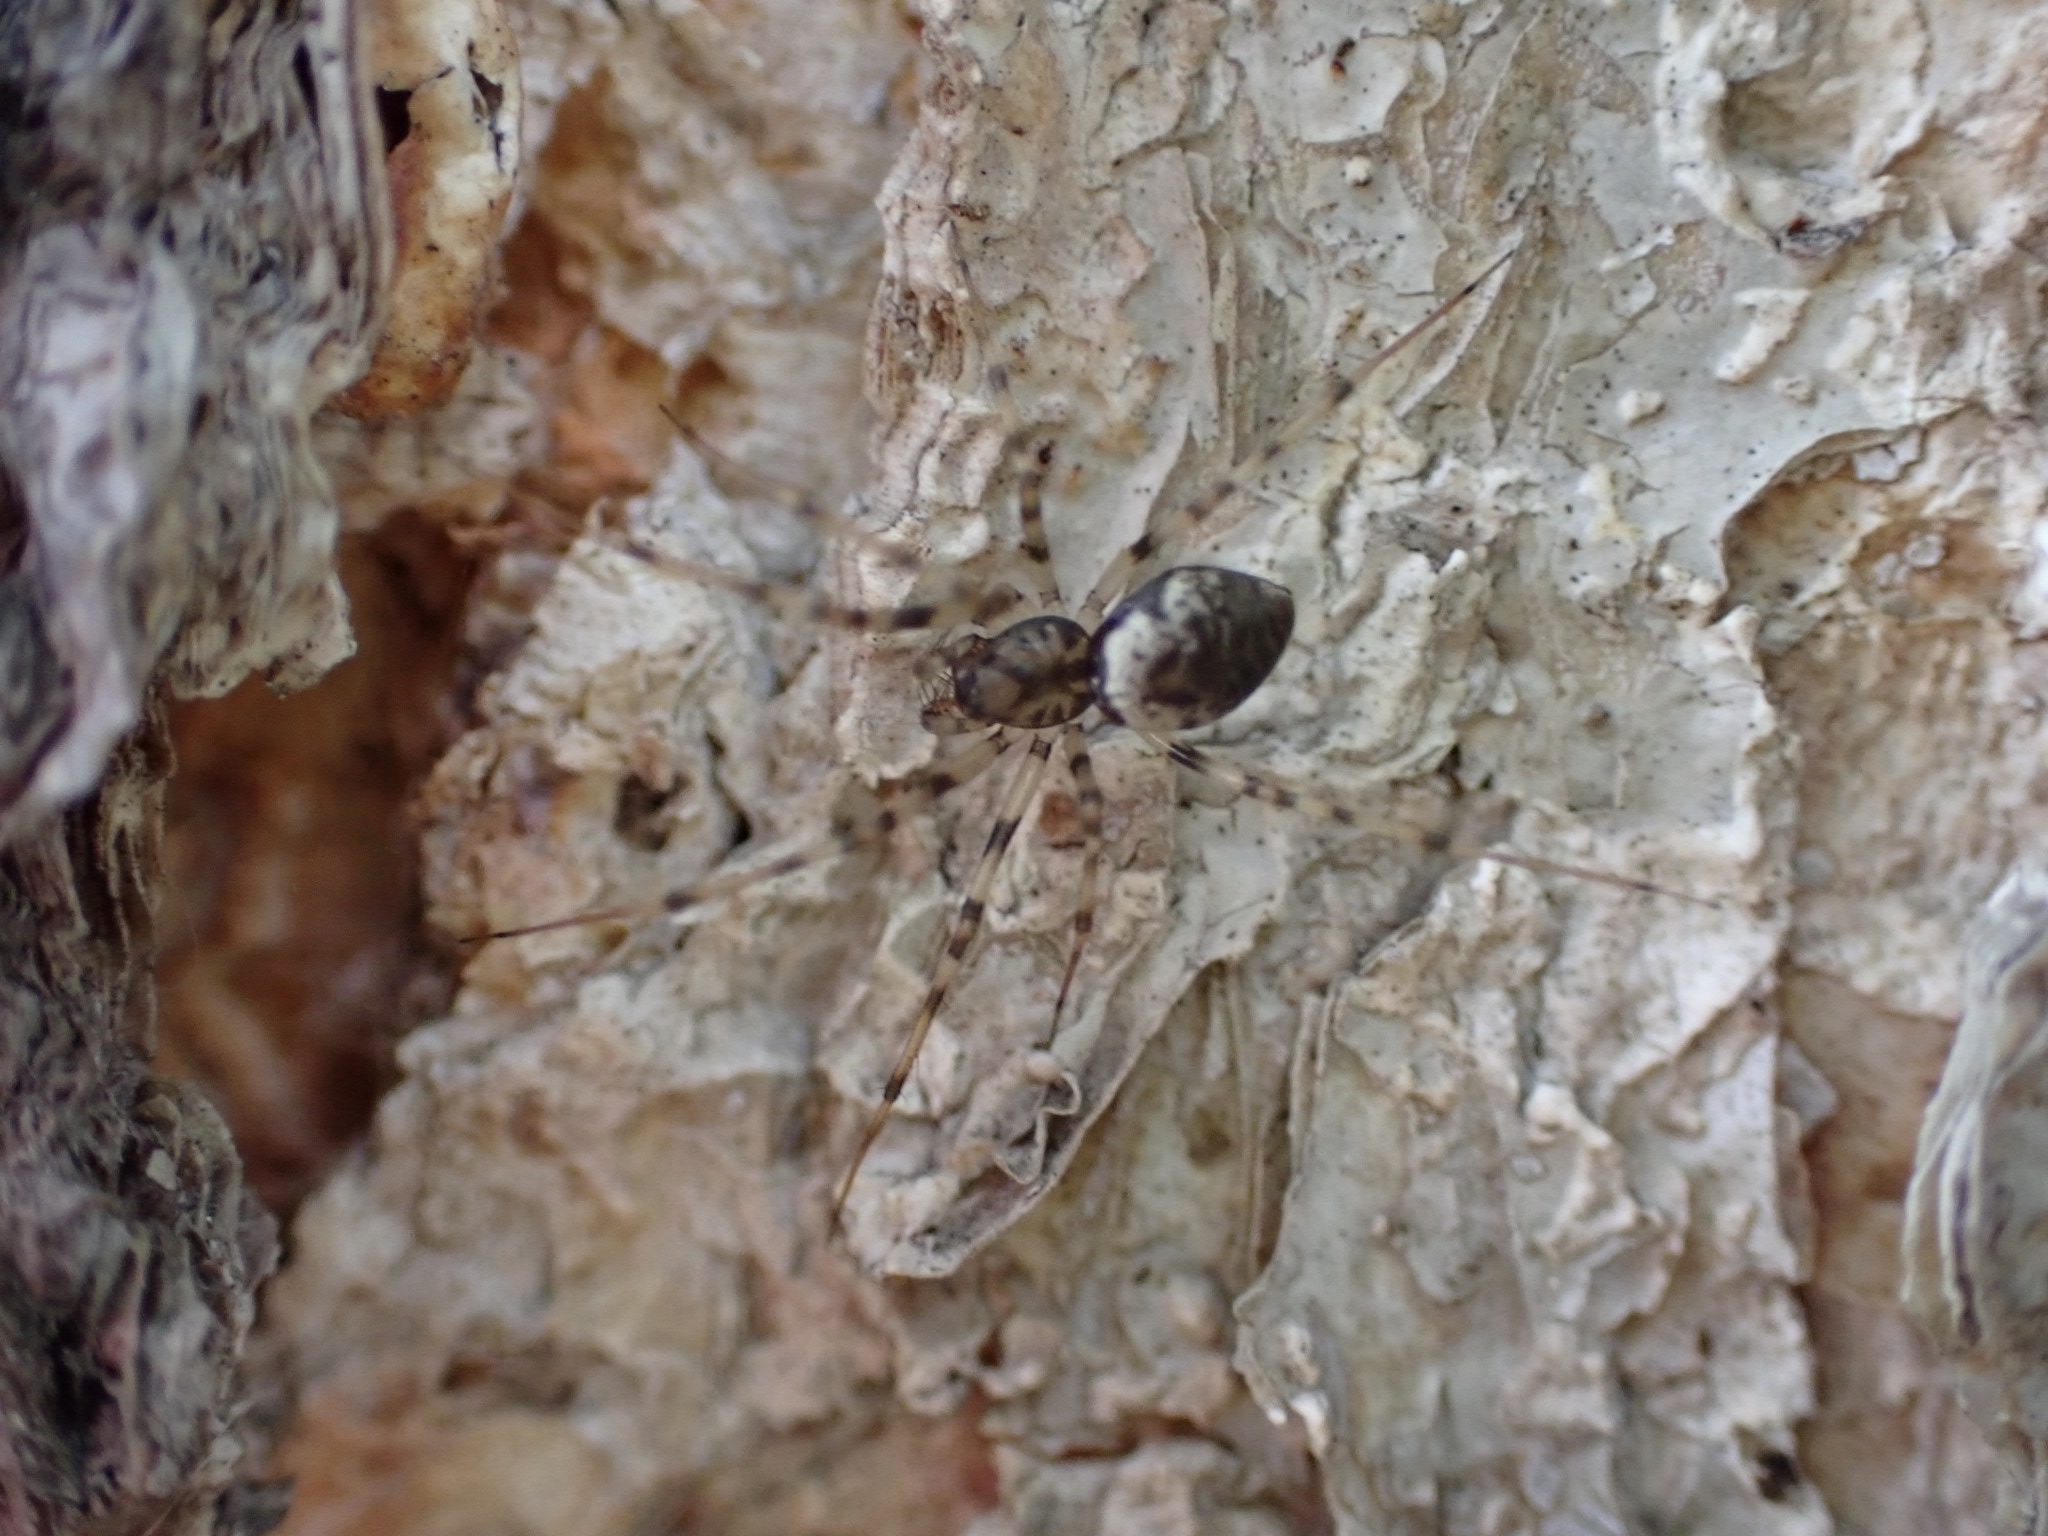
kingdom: Animalia
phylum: Arthropoda
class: Arachnida
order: Araneae
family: Linyphiidae
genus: Drapetisca
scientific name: Drapetisca socialis
